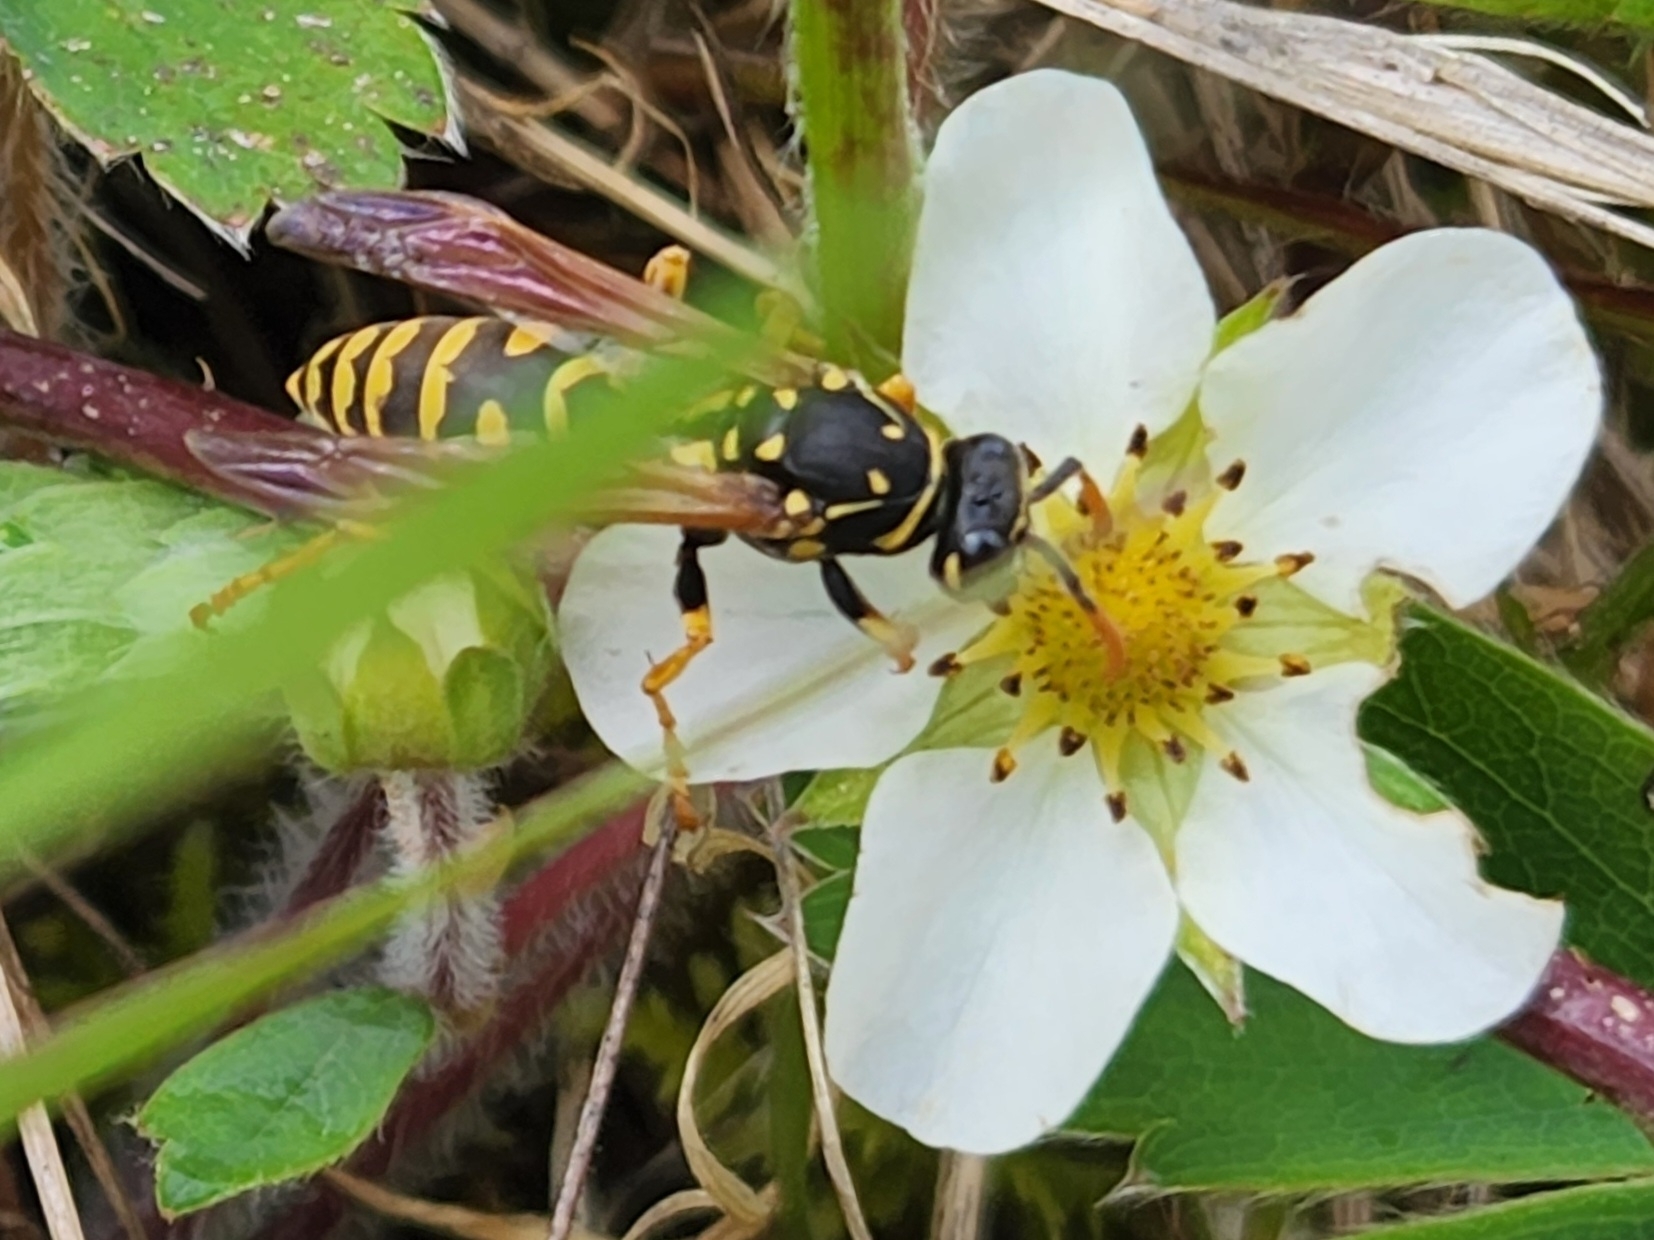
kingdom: Animalia
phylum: Arthropoda
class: Insecta
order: Hymenoptera
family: Eumenidae
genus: Polistes
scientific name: Polistes dominula
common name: Paper wasp
